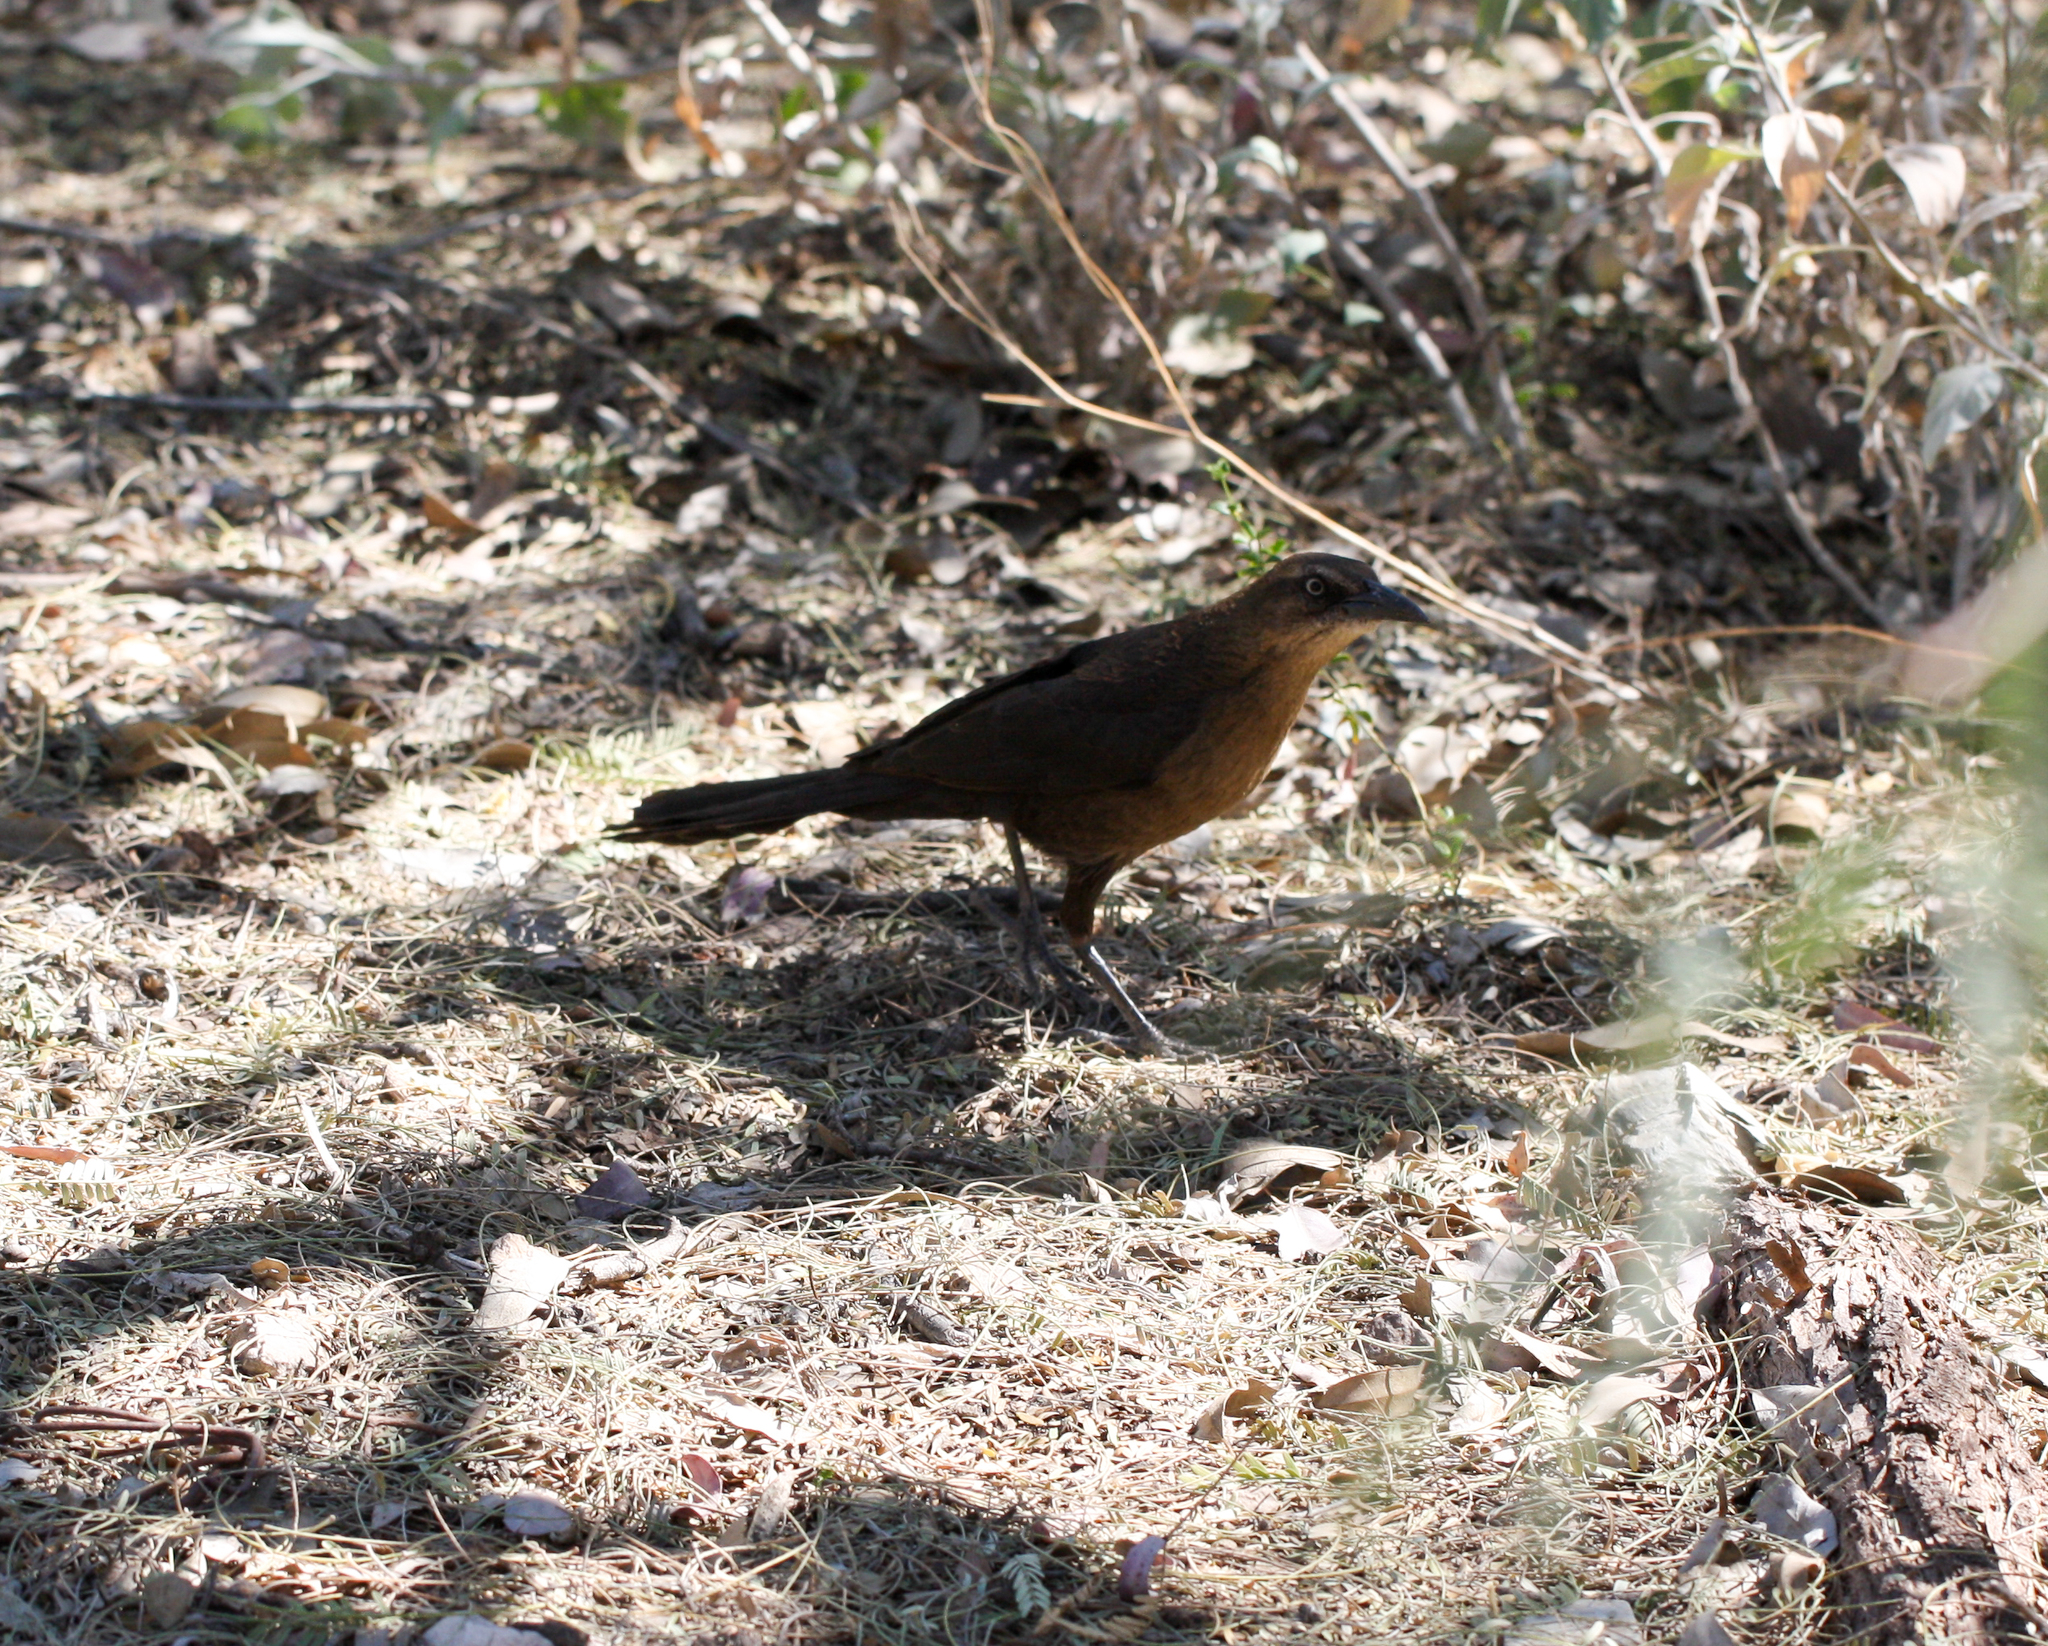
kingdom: Animalia
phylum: Chordata
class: Aves
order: Passeriformes
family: Icteridae
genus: Quiscalus
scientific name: Quiscalus mexicanus
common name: Great-tailed grackle
